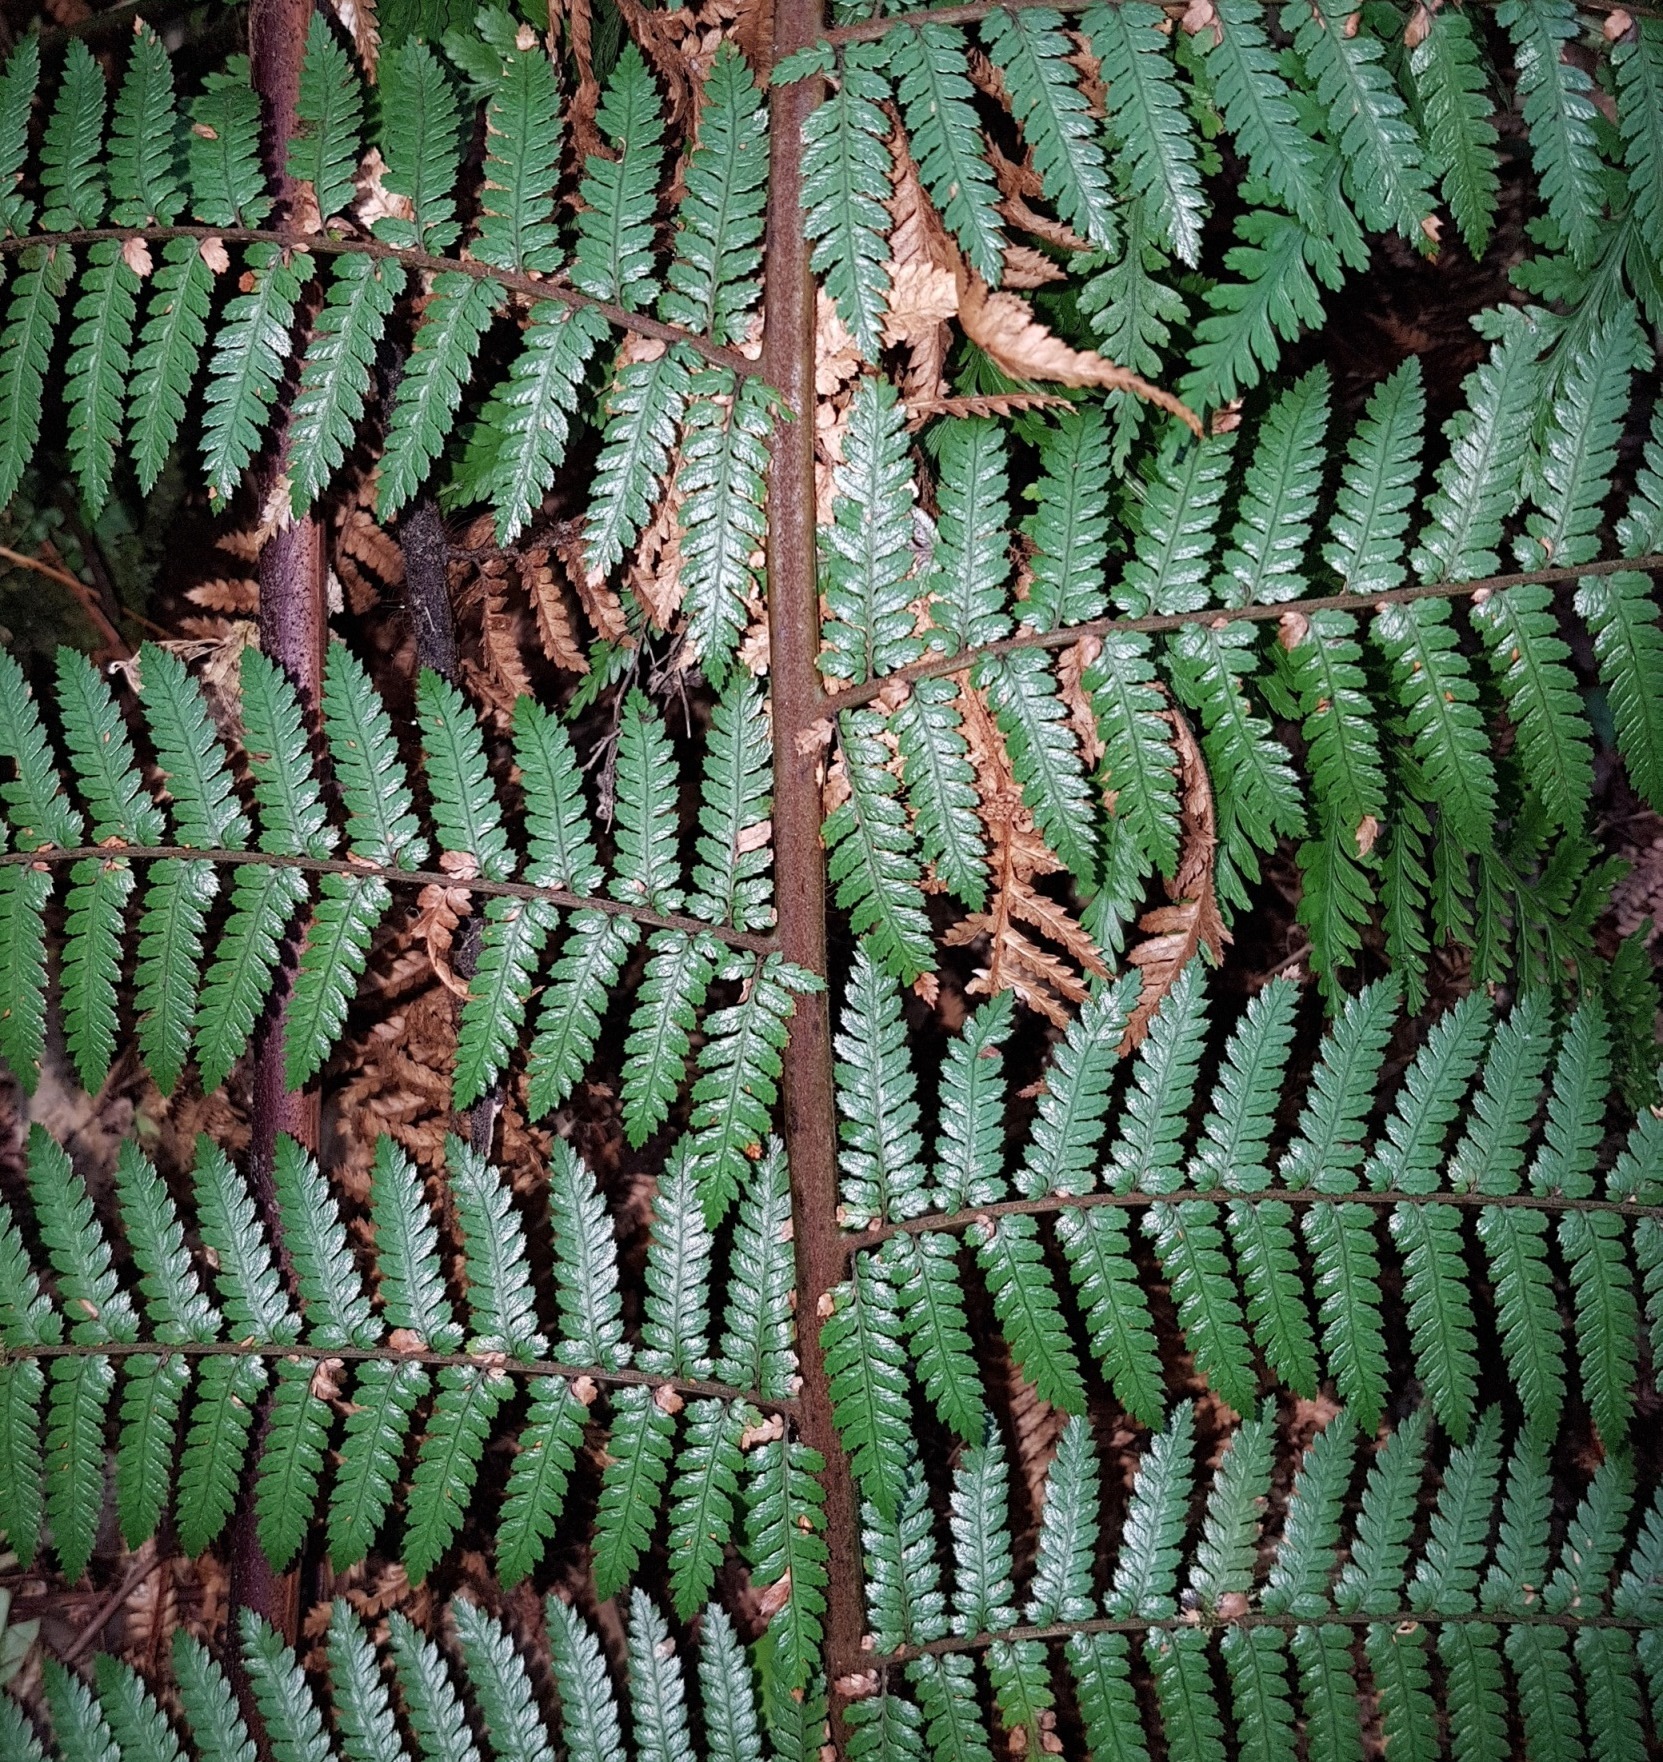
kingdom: Plantae
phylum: Tracheophyta
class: Polypodiopsida
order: Cyatheales
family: Dicksoniaceae
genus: Dicksonia
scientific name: Dicksonia squarrosa
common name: Hard treefern
